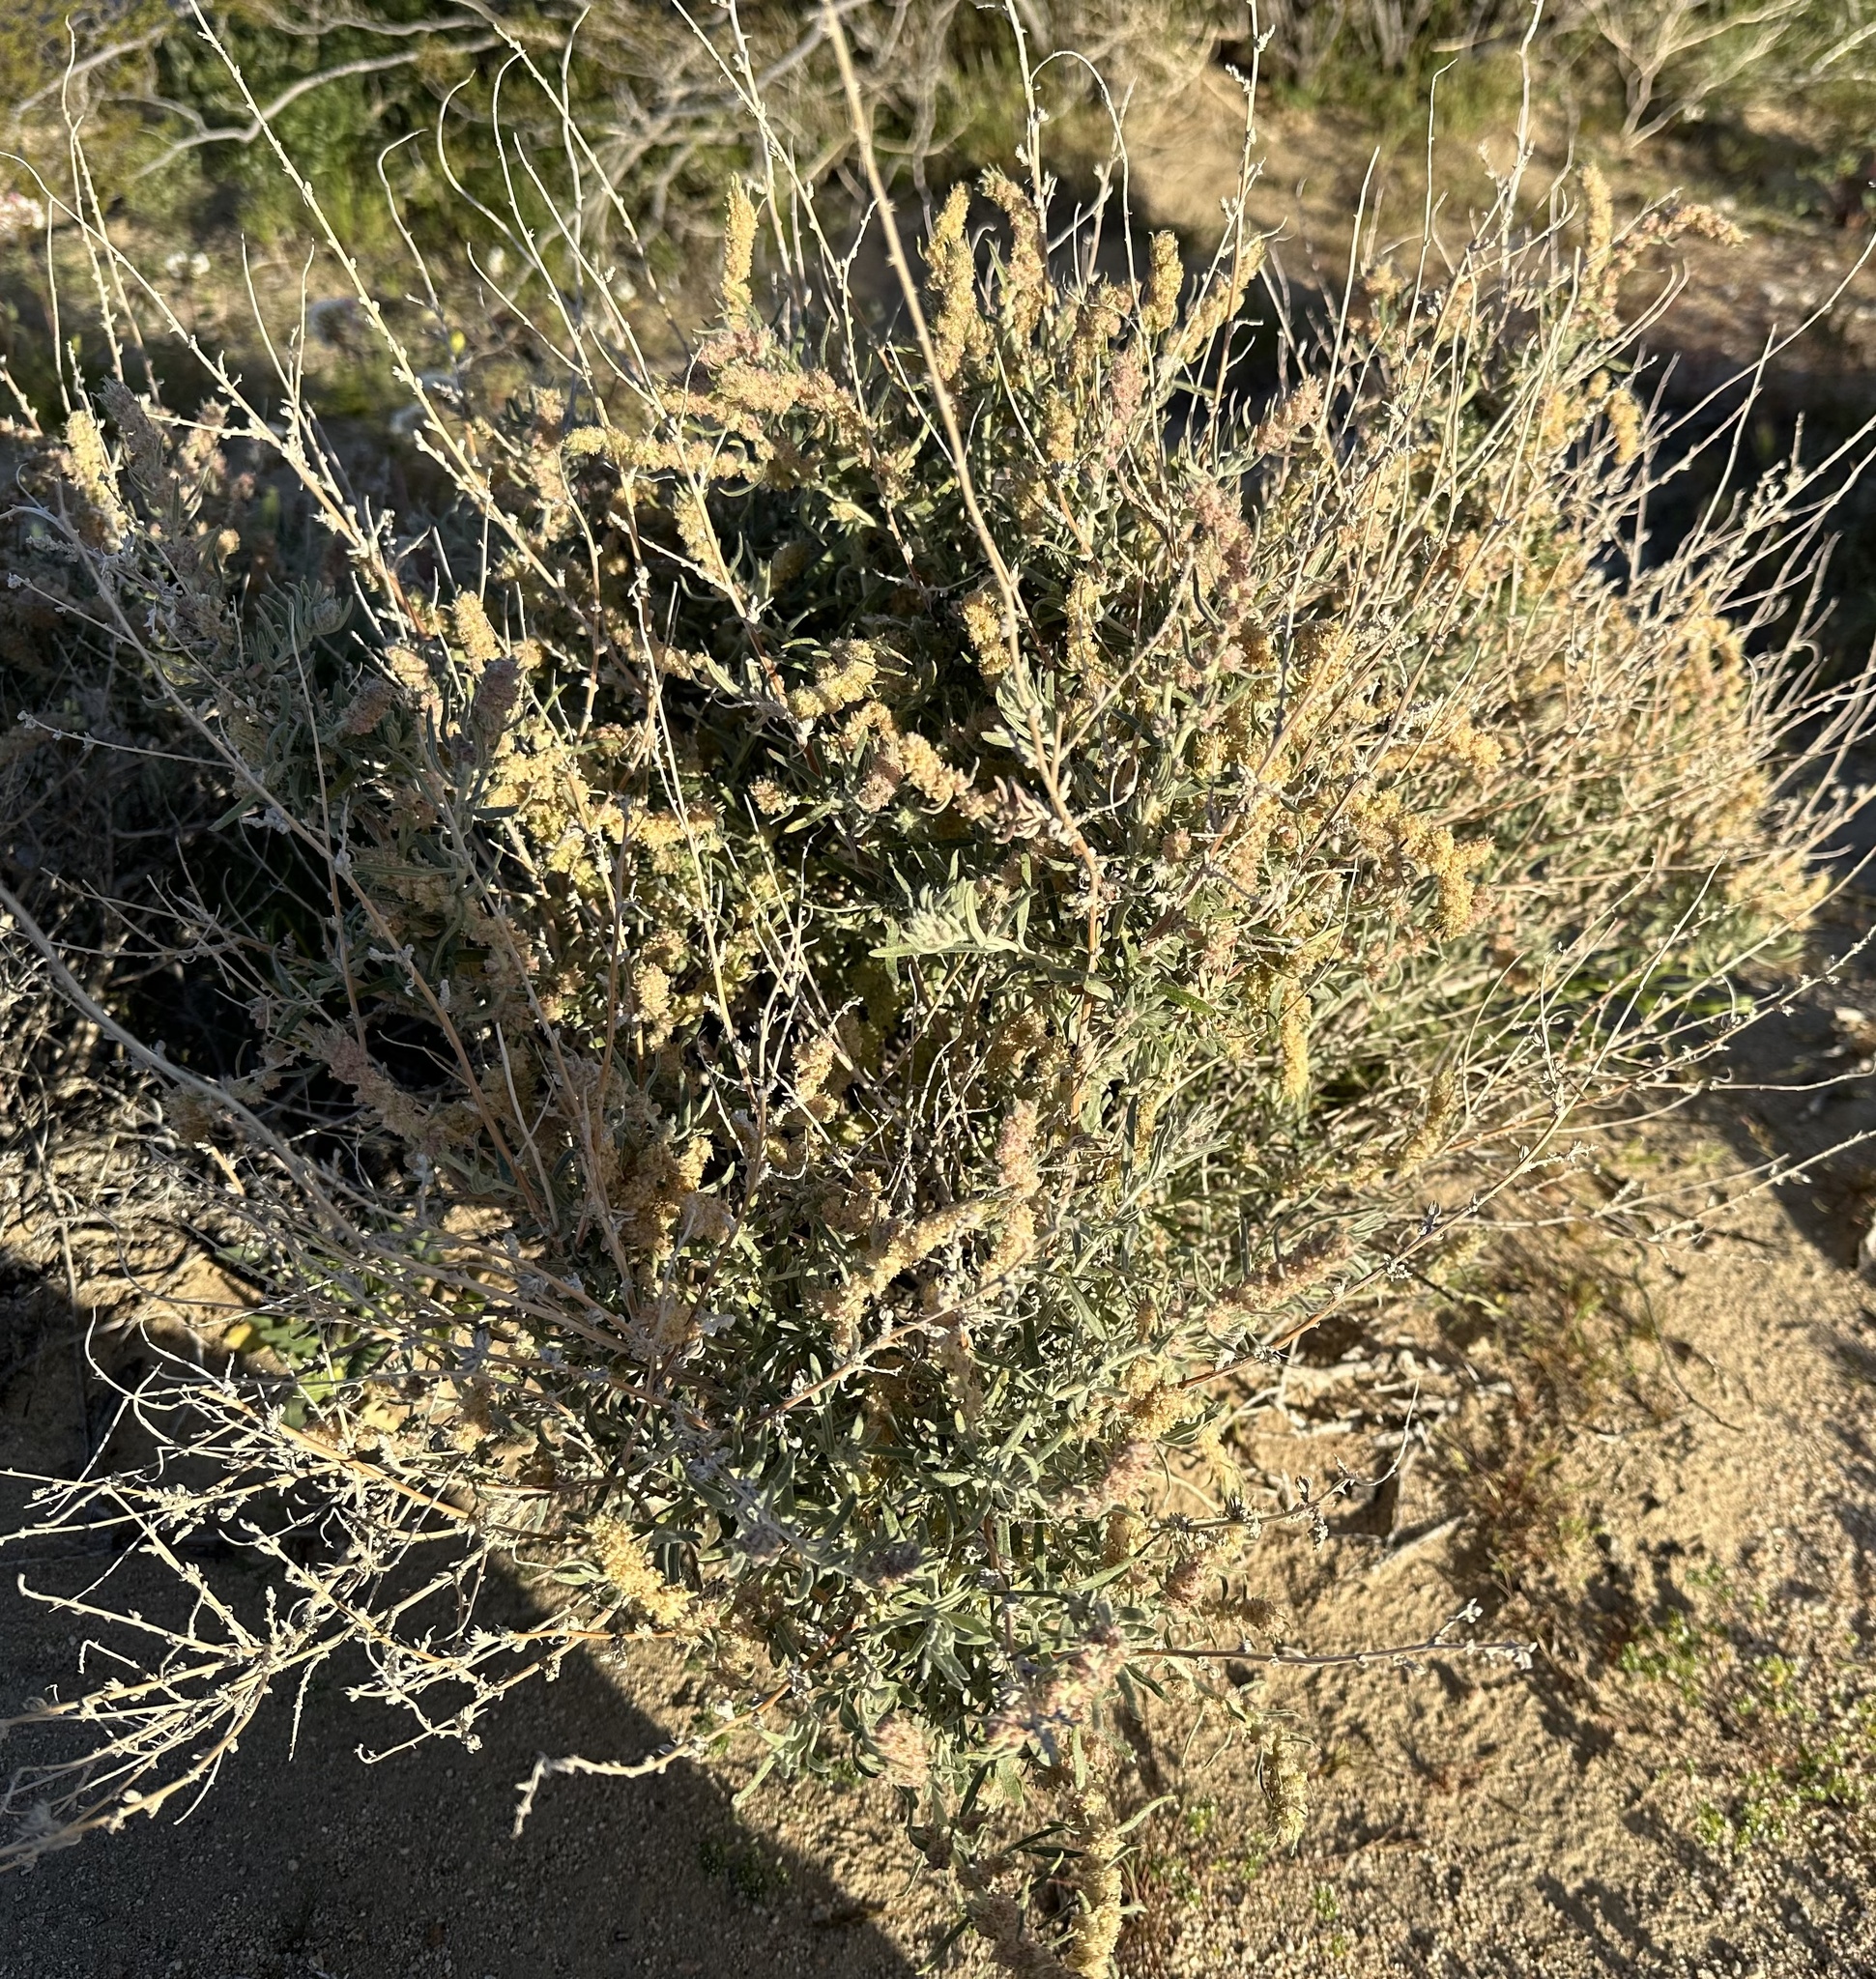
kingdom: Plantae
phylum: Tracheophyta
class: Magnoliopsida
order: Caryophyllales
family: Amaranthaceae
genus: Atriplex
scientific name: Atriplex canescens
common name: Four-wing saltbush
